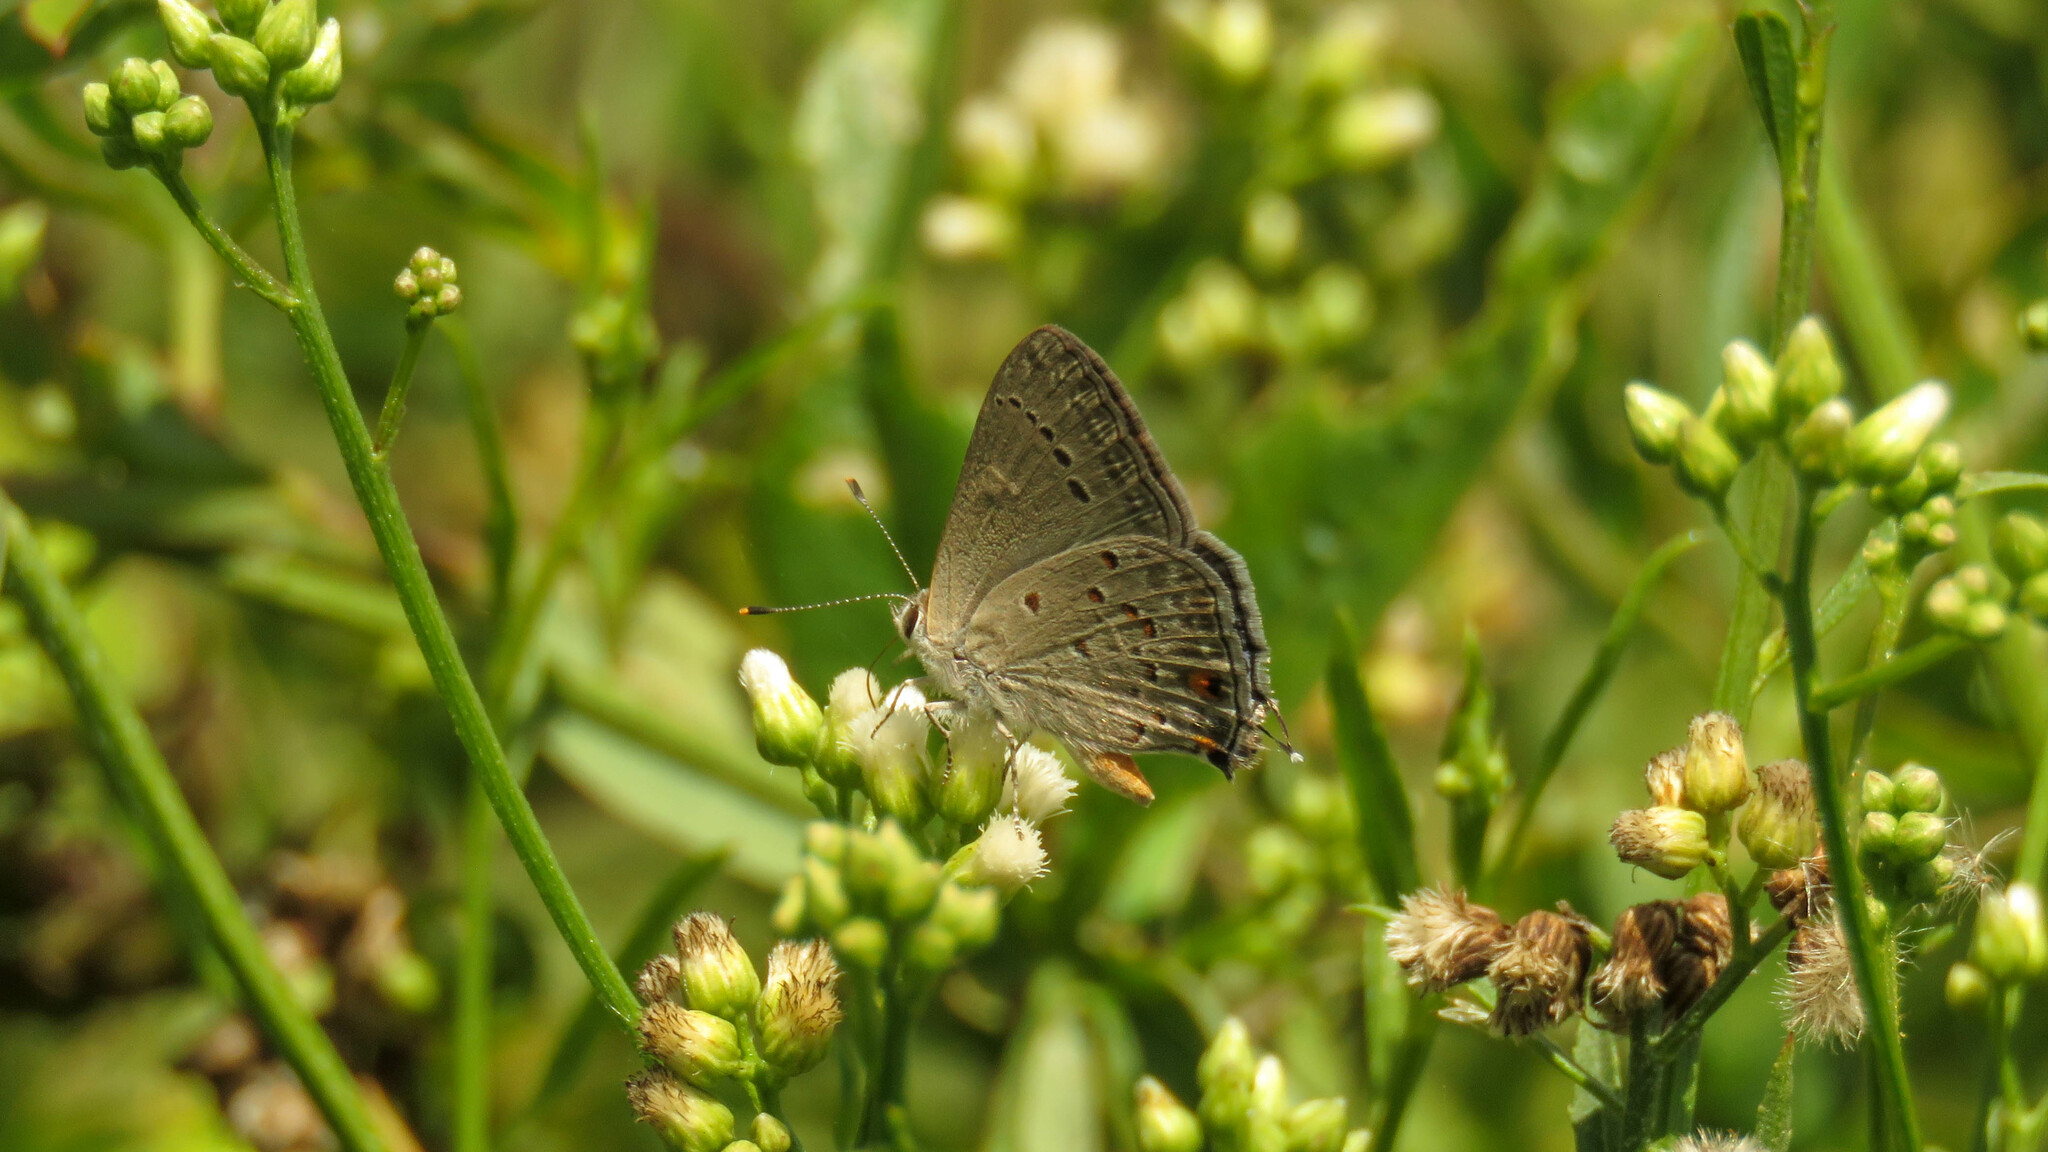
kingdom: Animalia
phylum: Arthropoda
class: Insecta
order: Lepidoptera
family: Lycaenidae
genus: Strymon
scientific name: Strymon eurytulus
